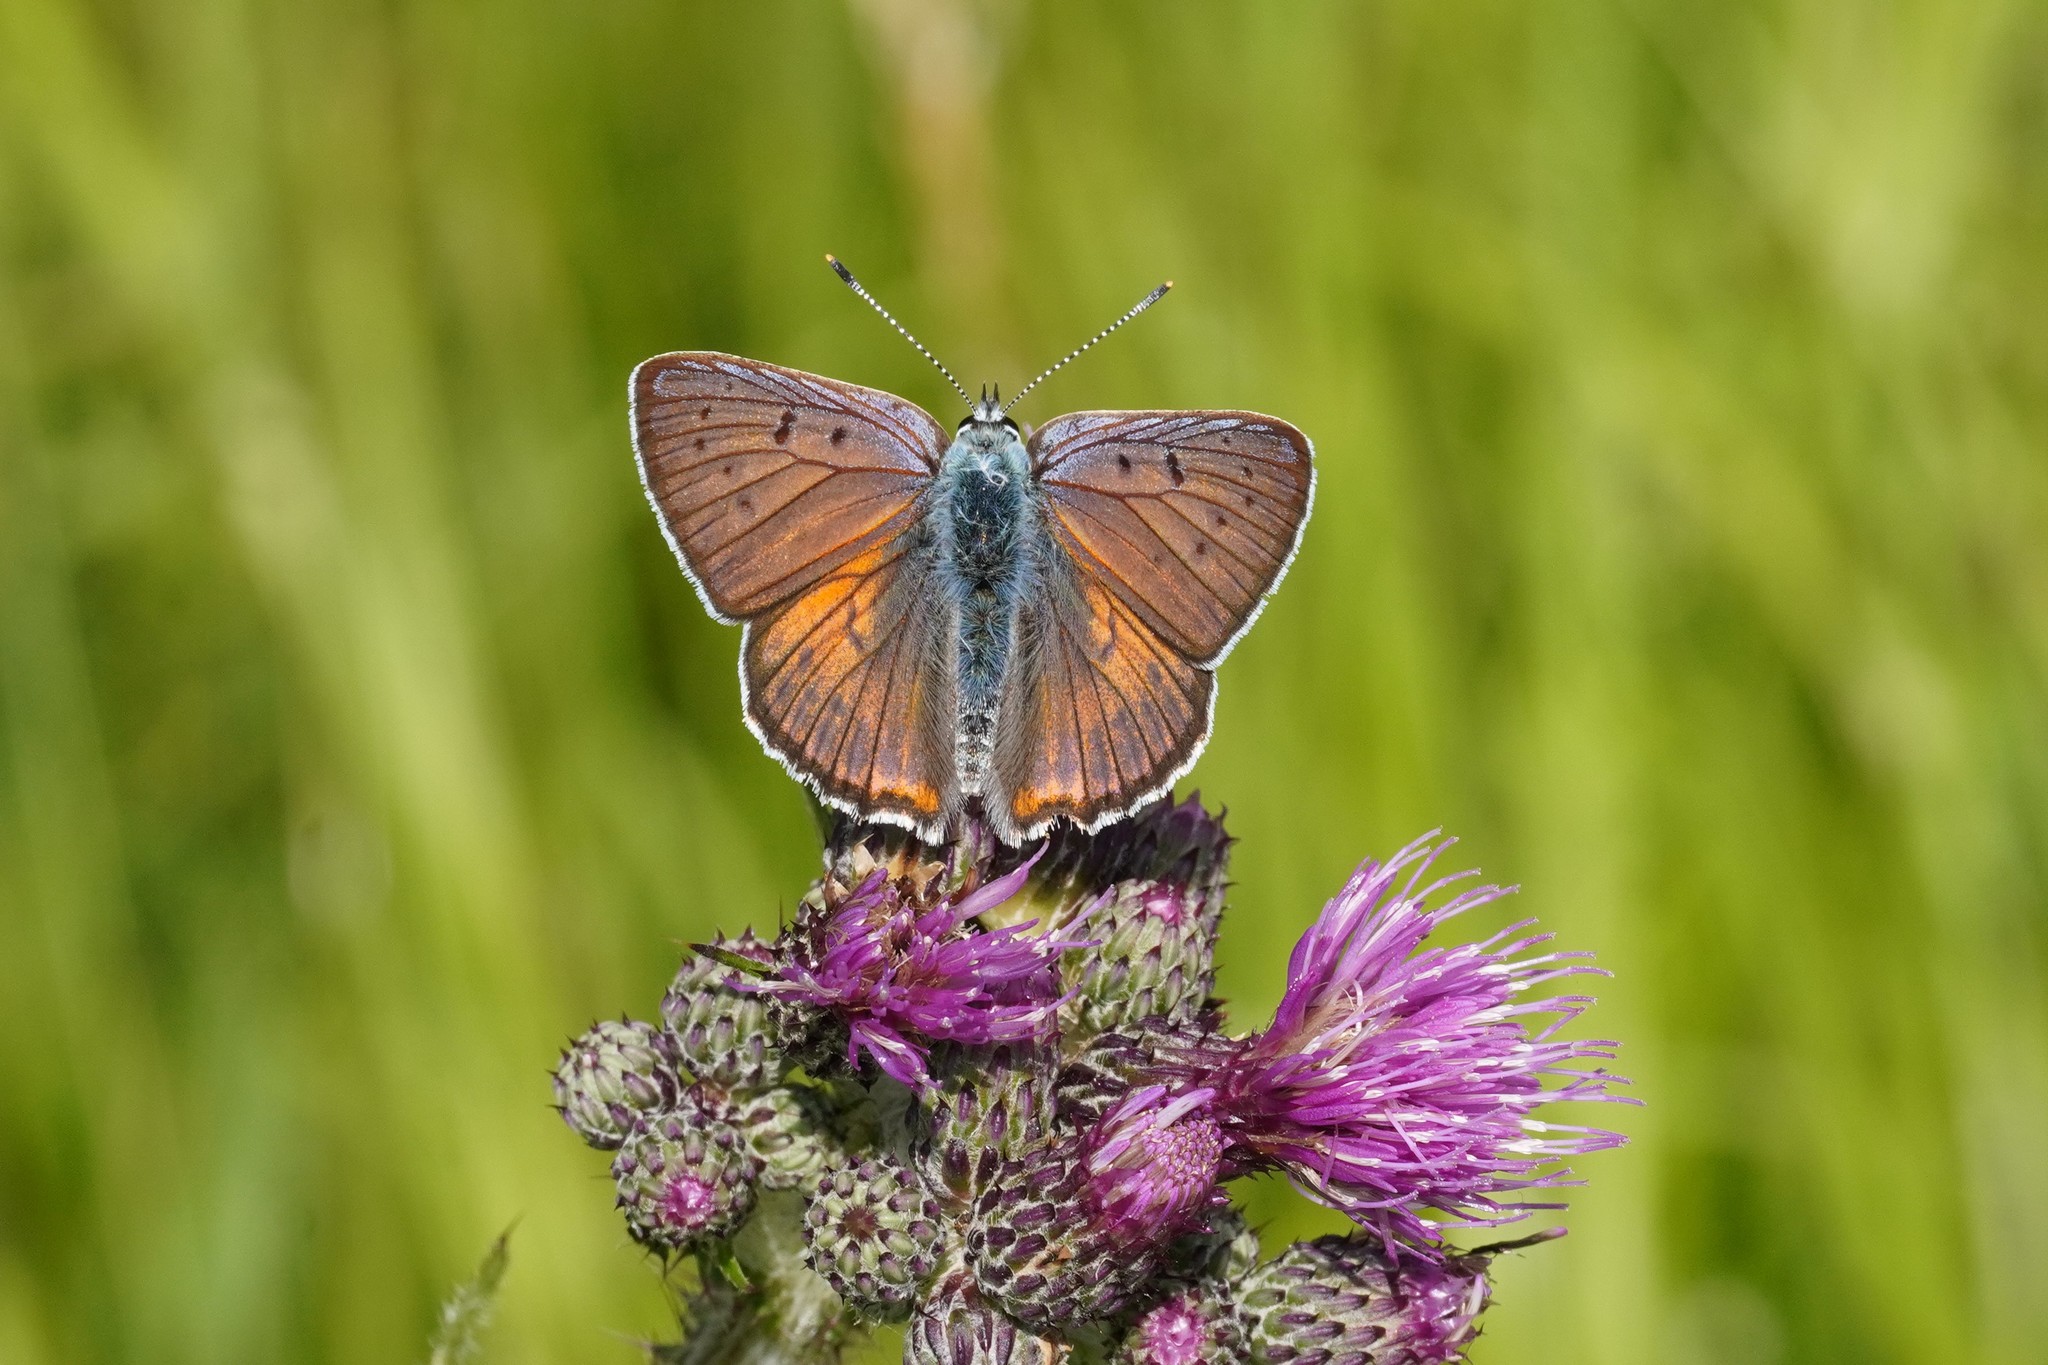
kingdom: Animalia
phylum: Arthropoda
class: Insecta
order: Lepidoptera
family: Lycaenidae
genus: Lycaena
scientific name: Lycaena alciphron
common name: Purple-shot copper
